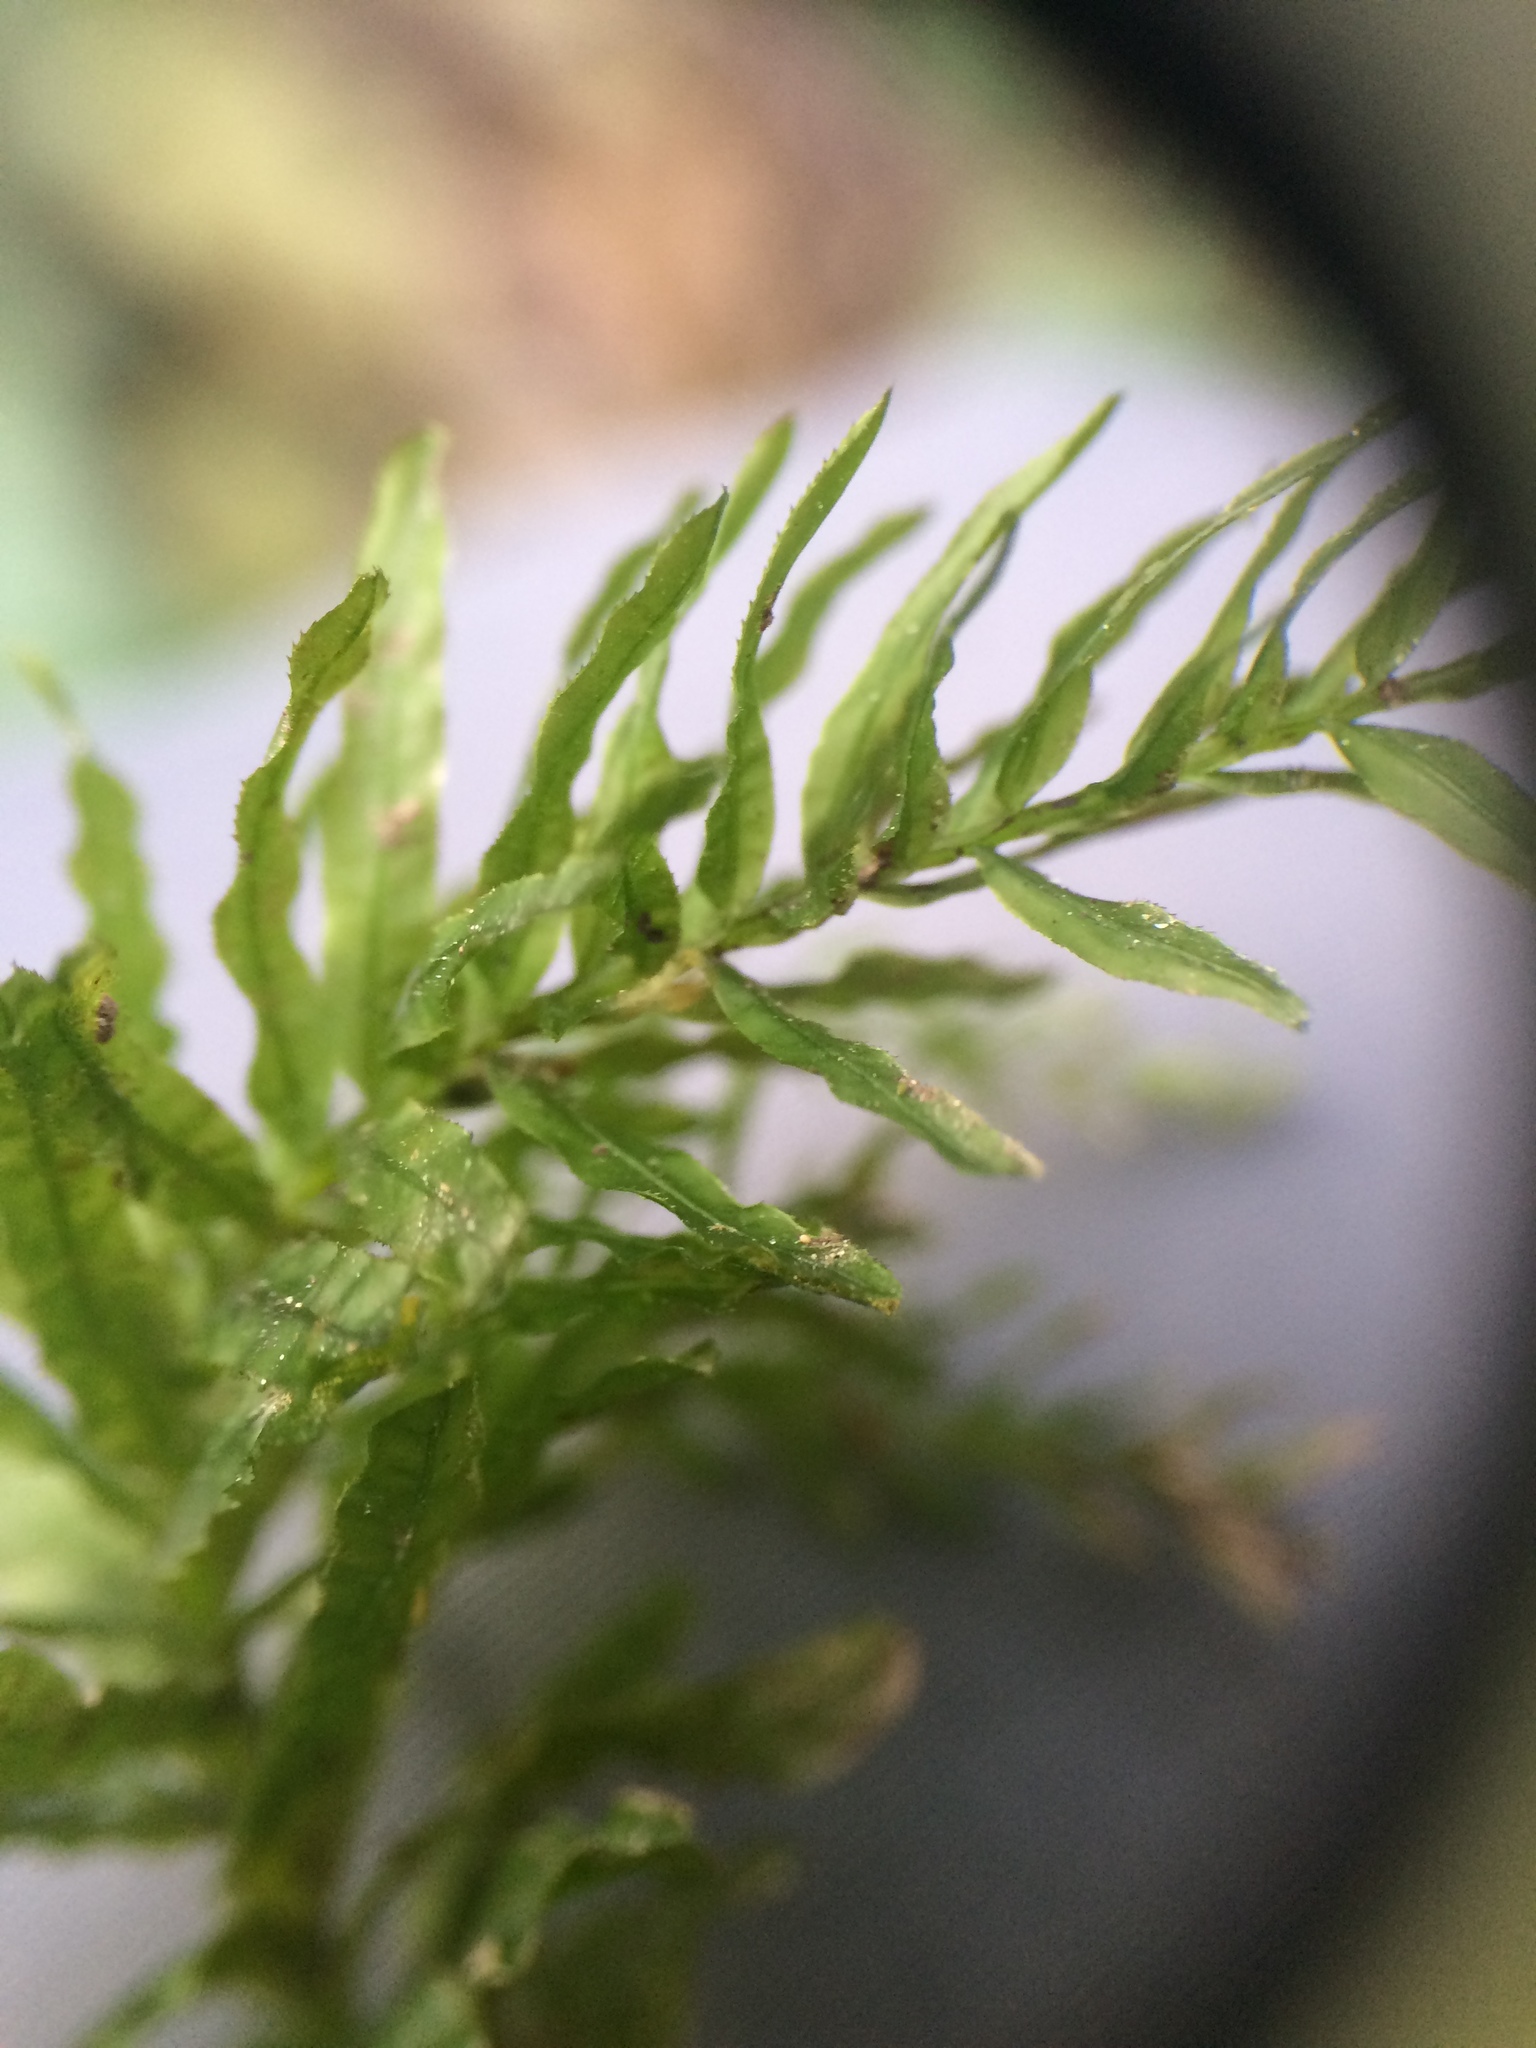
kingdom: Plantae
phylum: Bryophyta
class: Bryopsida
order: Bryales
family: Mniaceae
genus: Plagiomnium
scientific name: Plagiomnium undulatum
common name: Hart's-tongue thyme-moss
